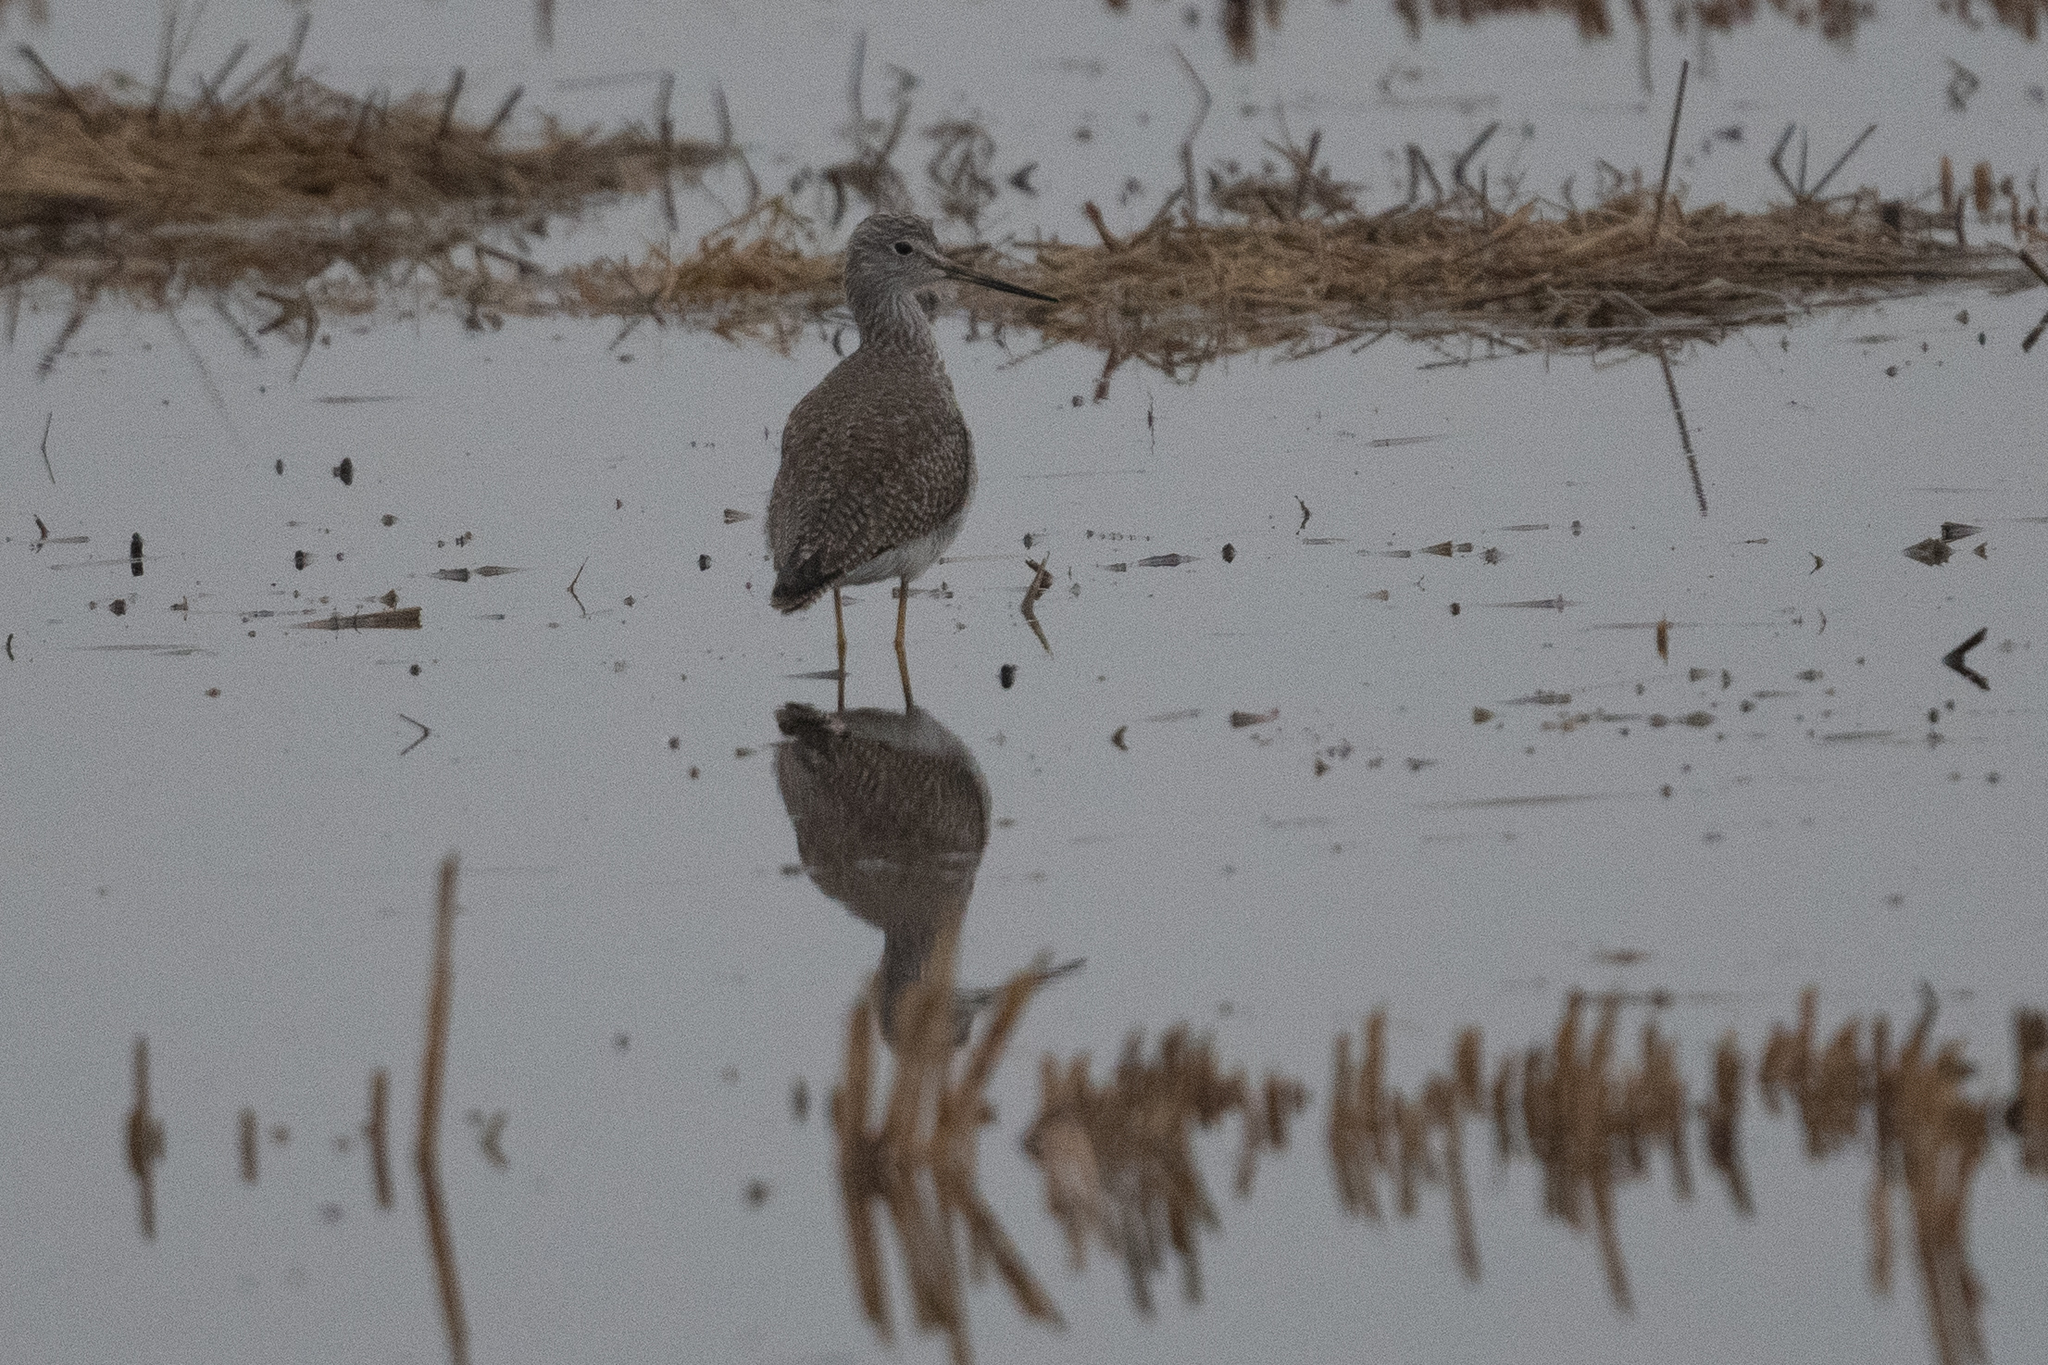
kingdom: Animalia
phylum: Chordata
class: Aves
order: Charadriiformes
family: Scolopacidae
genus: Tringa
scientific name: Tringa melanoleuca
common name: Greater yellowlegs
